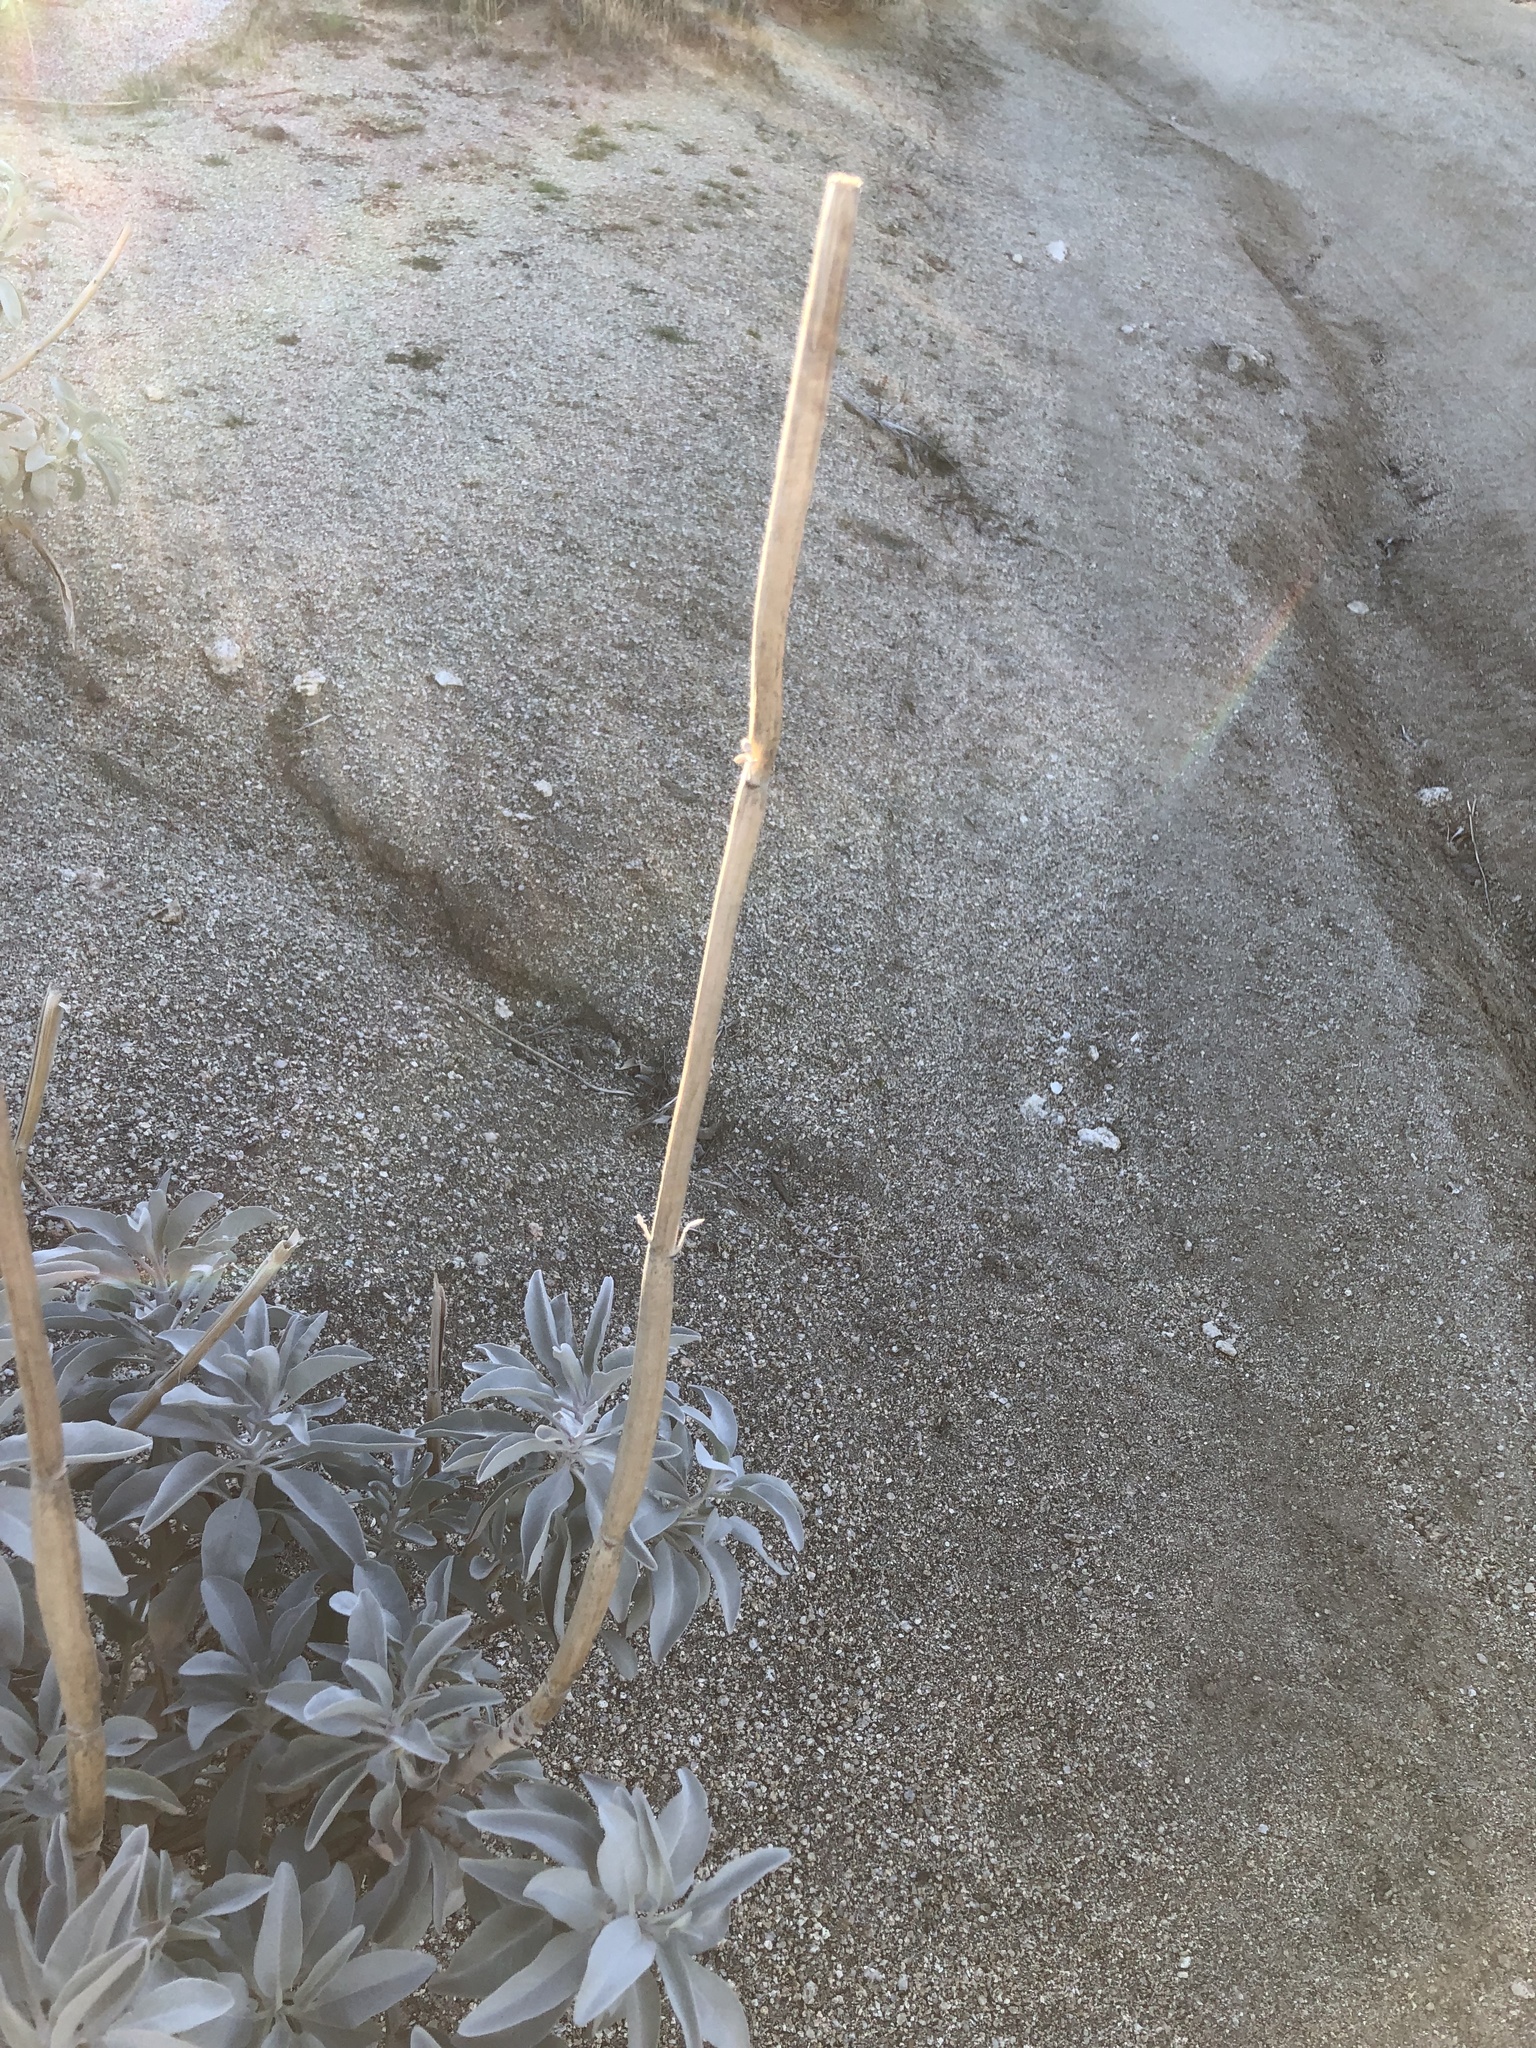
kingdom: Plantae
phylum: Tracheophyta
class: Magnoliopsida
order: Lamiales
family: Lamiaceae
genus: Salvia
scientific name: Salvia apiana
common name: White sage
